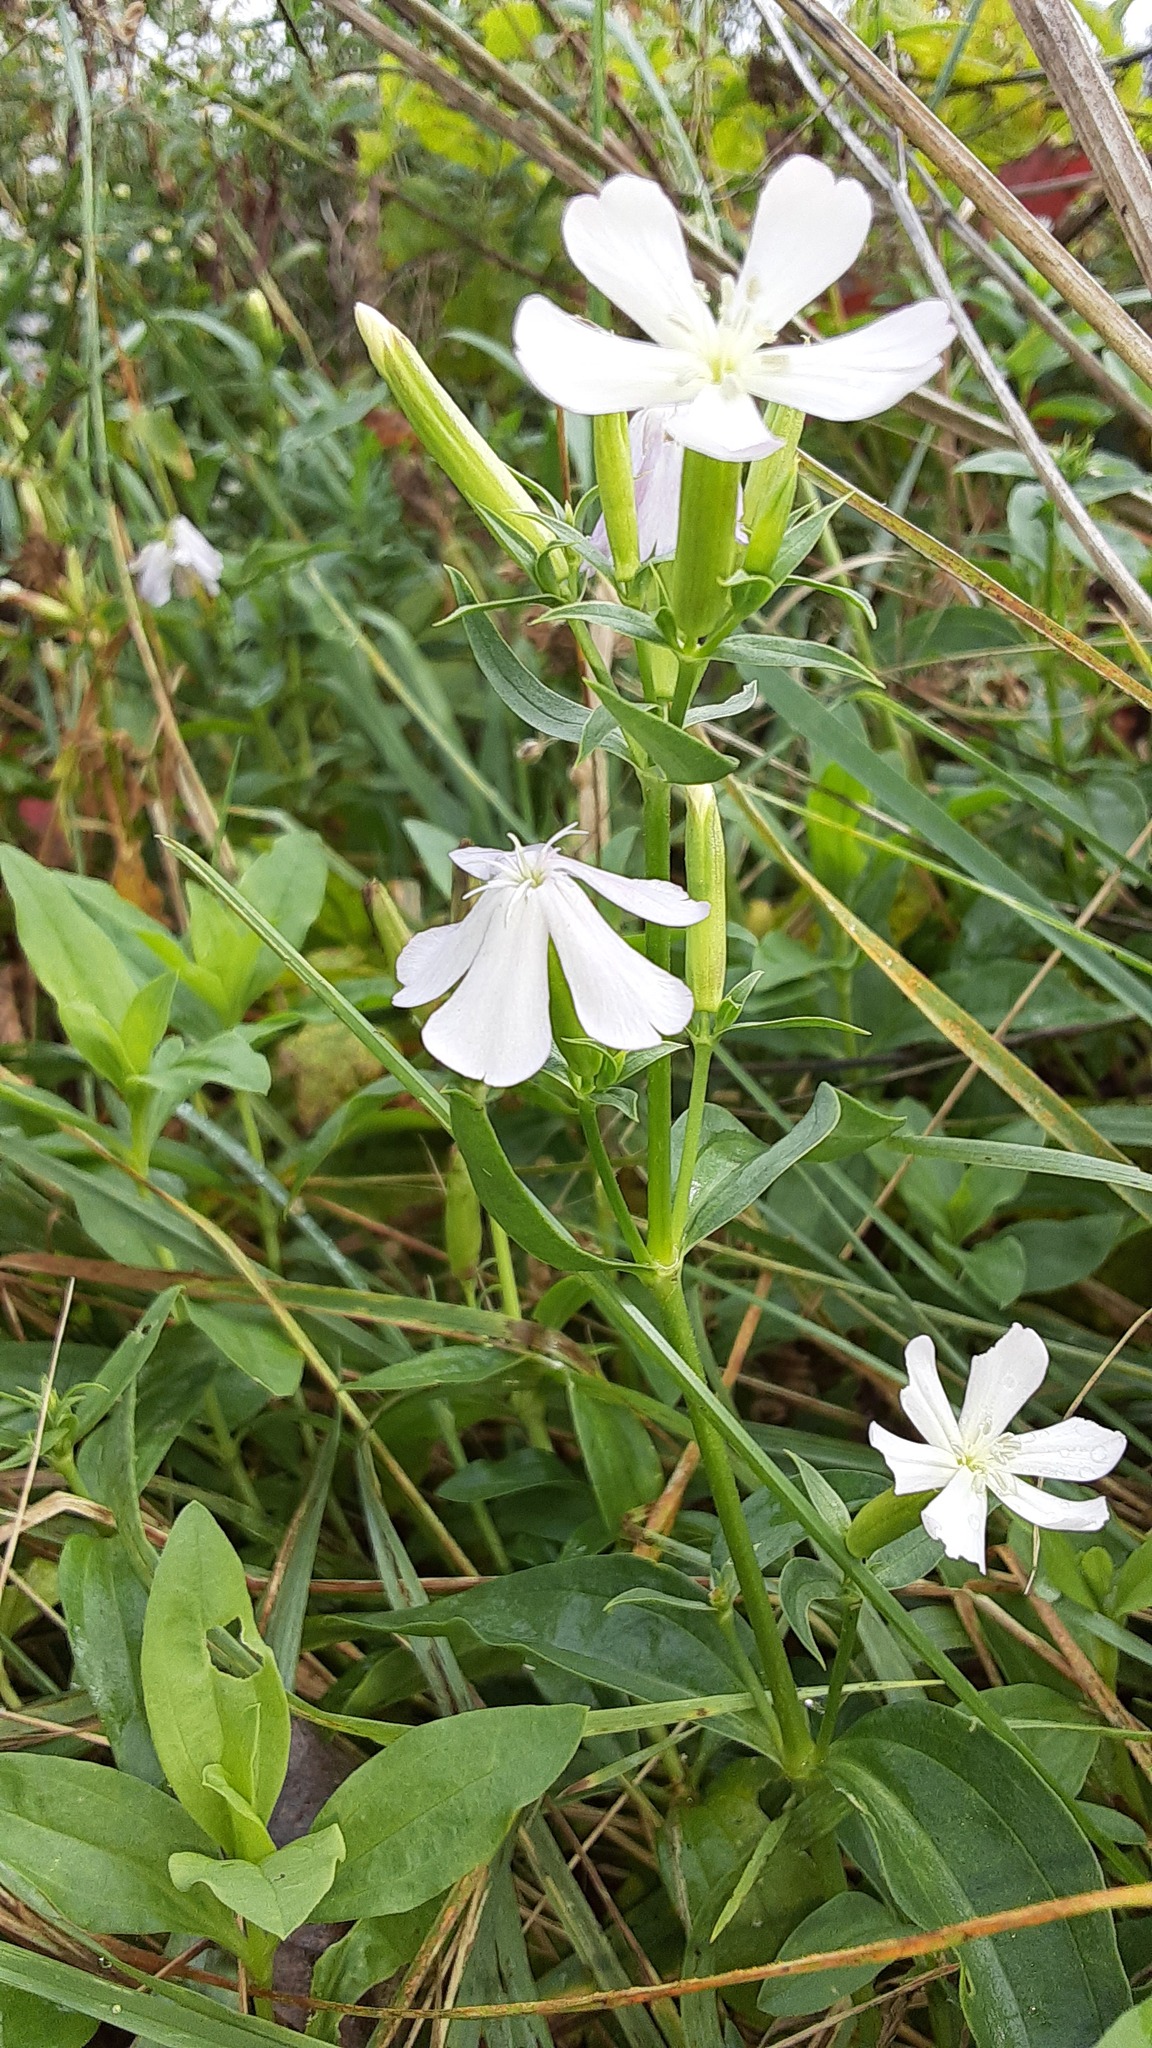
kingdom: Plantae
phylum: Tracheophyta
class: Magnoliopsida
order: Caryophyllales
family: Caryophyllaceae
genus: Saponaria
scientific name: Saponaria officinalis
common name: Soapwort
